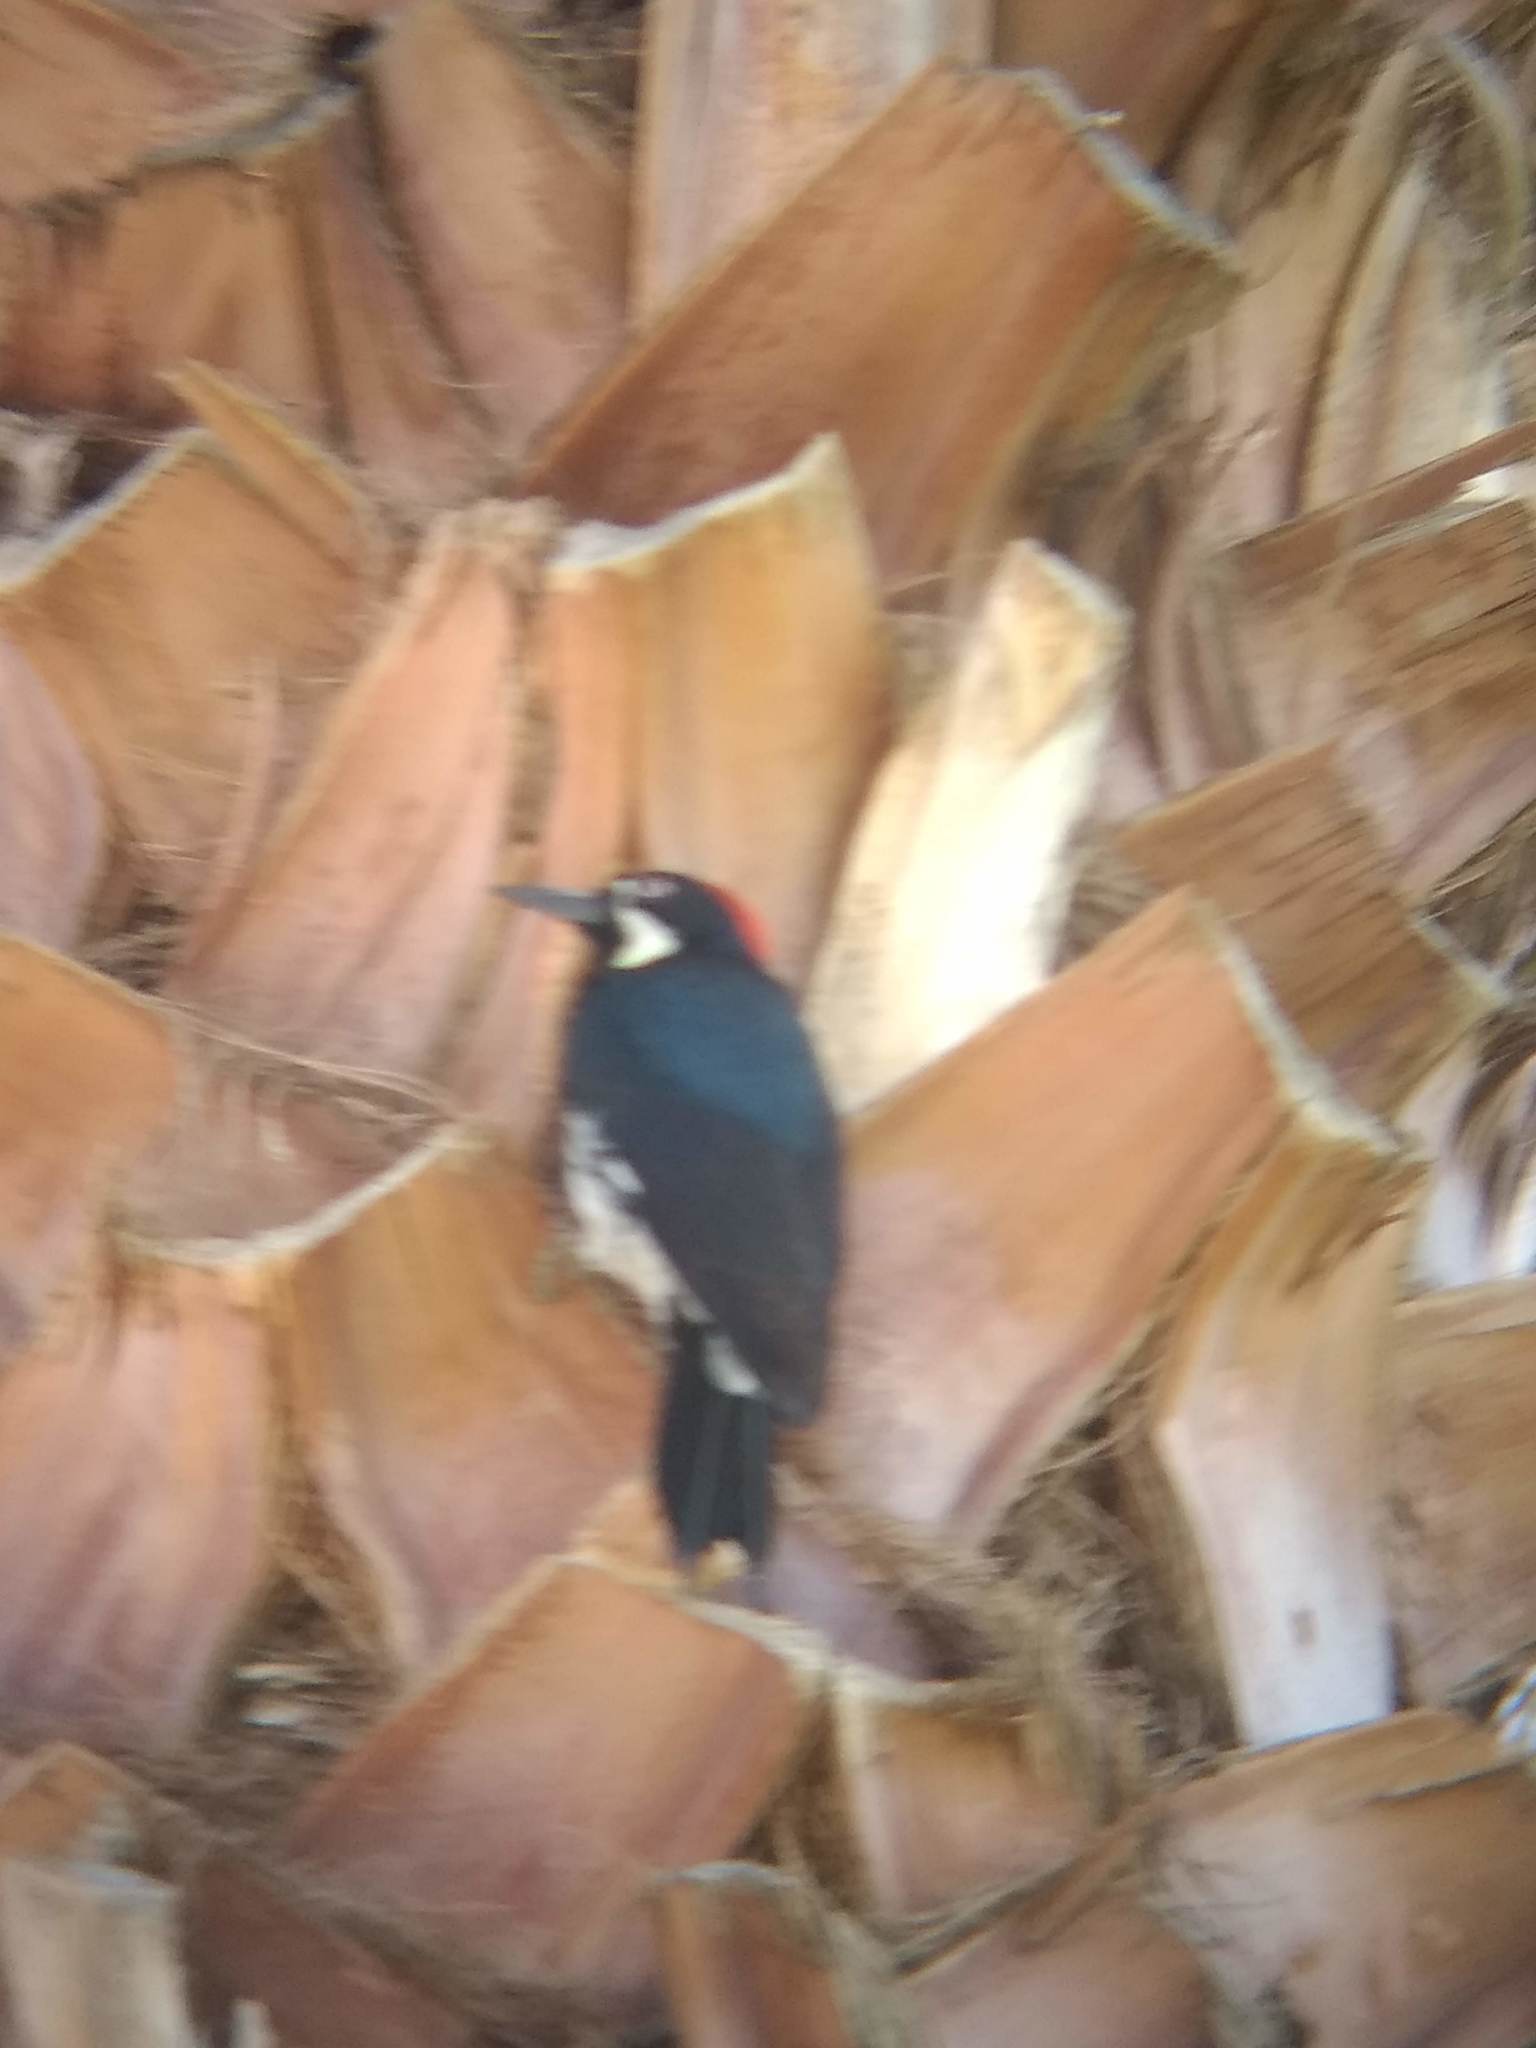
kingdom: Animalia
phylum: Chordata
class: Aves
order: Piciformes
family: Picidae
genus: Melanerpes
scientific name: Melanerpes formicivorus
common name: Acorn woodpecker
